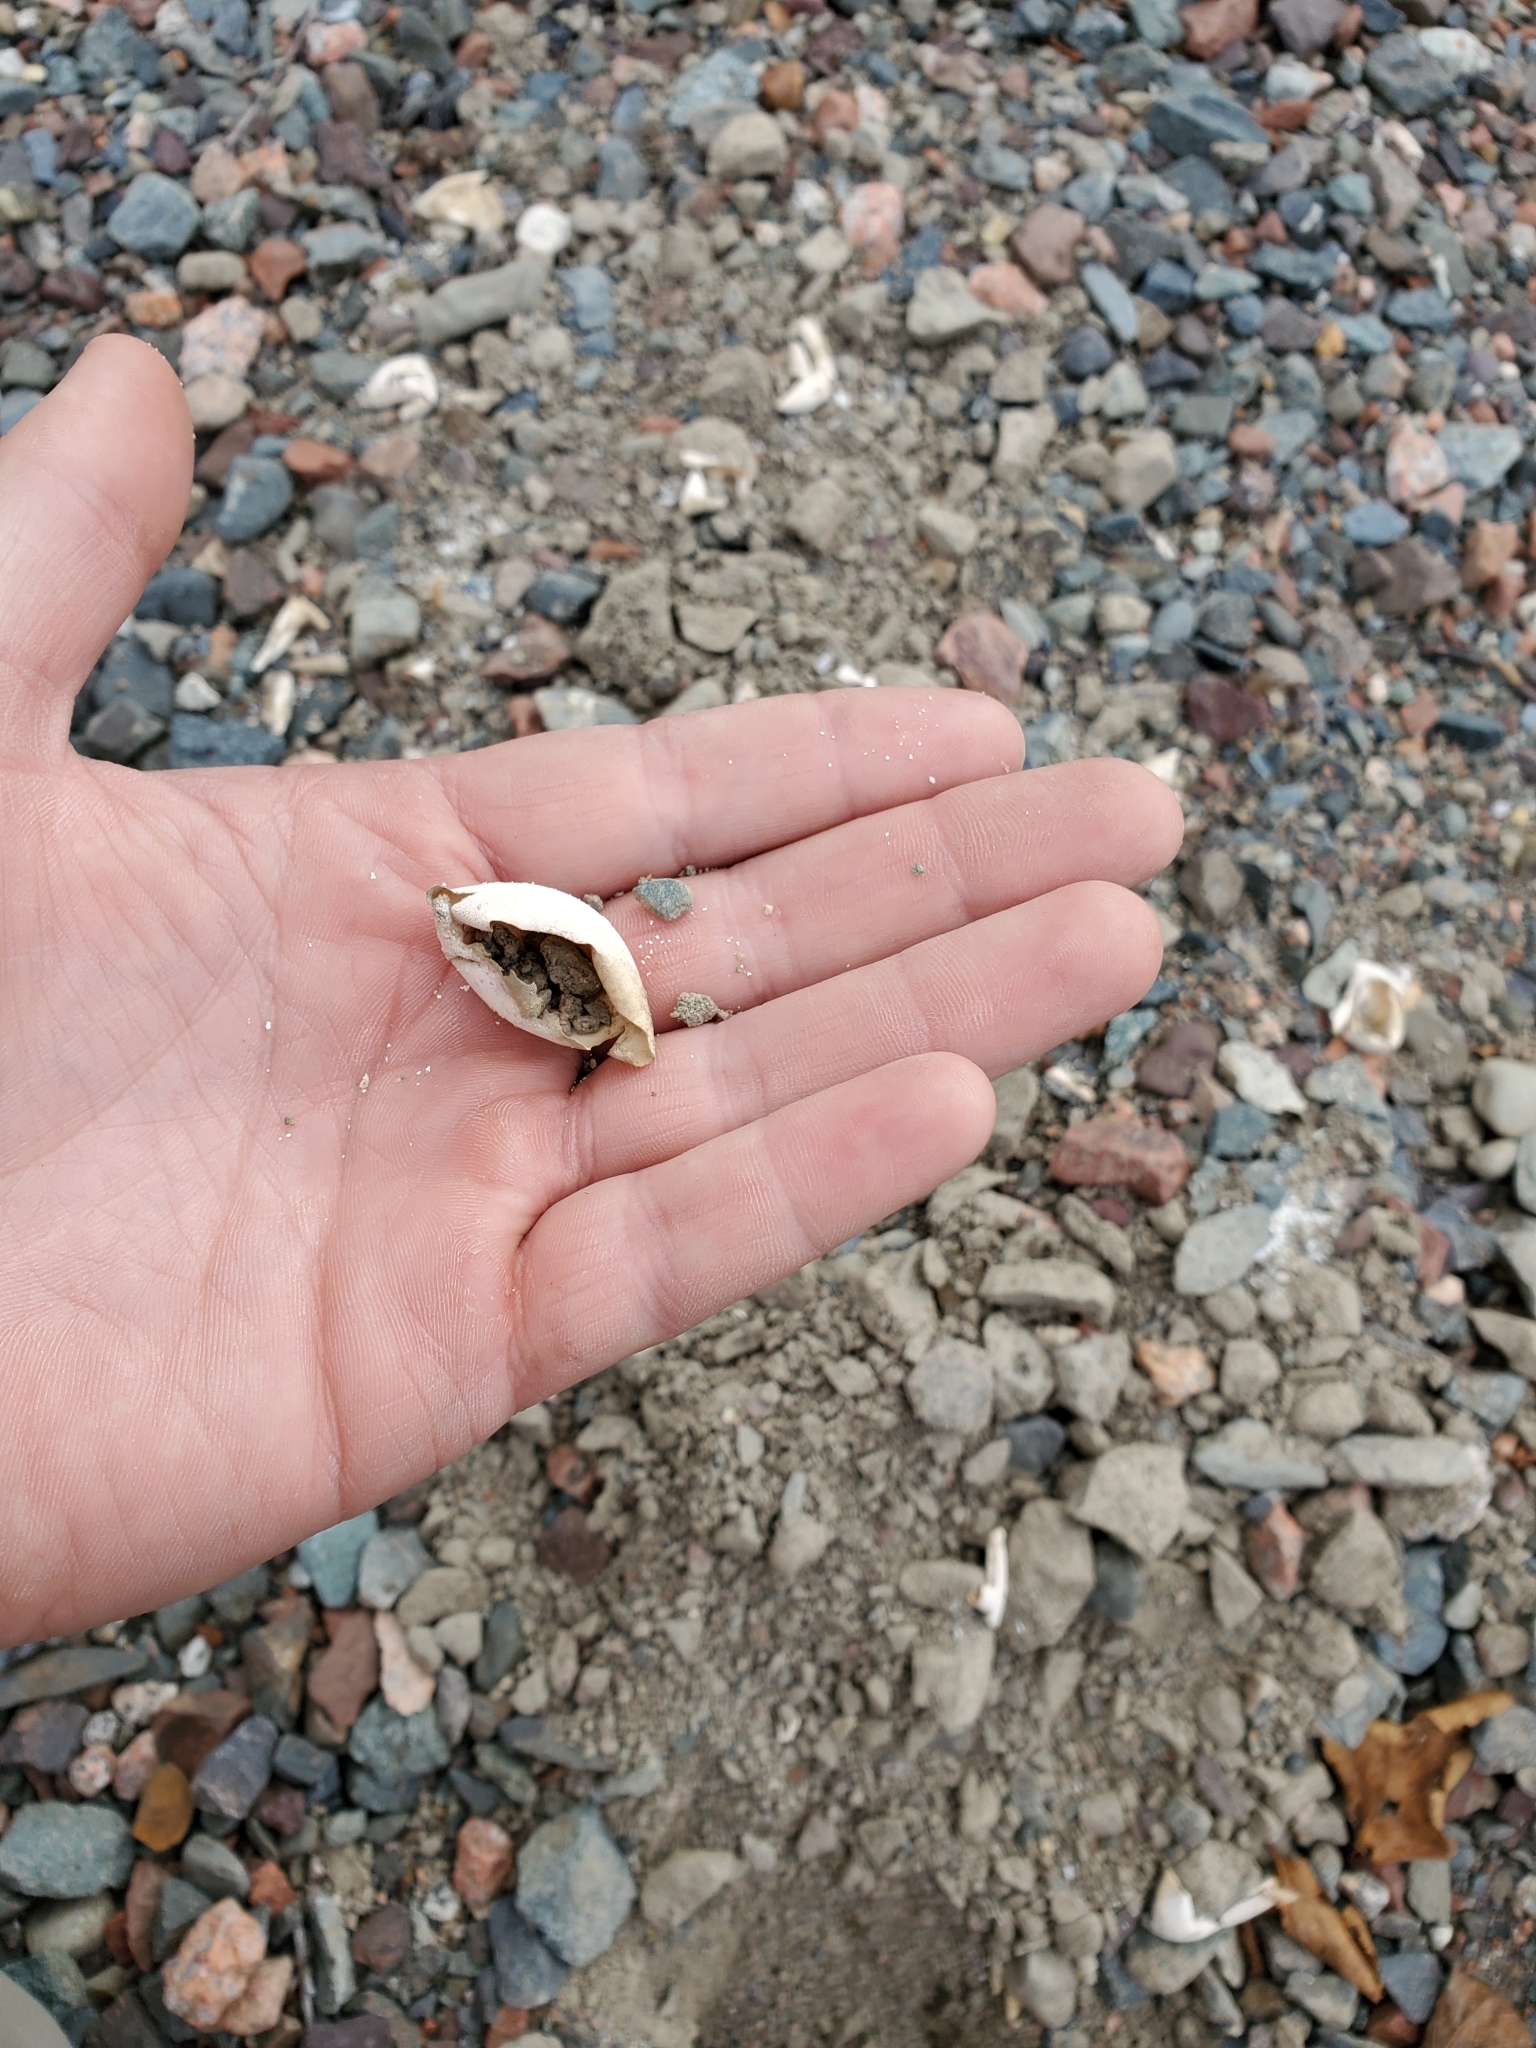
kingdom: Animalia
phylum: Chordata
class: Testudines
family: Chelydridae
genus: Chelydra
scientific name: Chelydra serpentina
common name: Common snapping turtle
